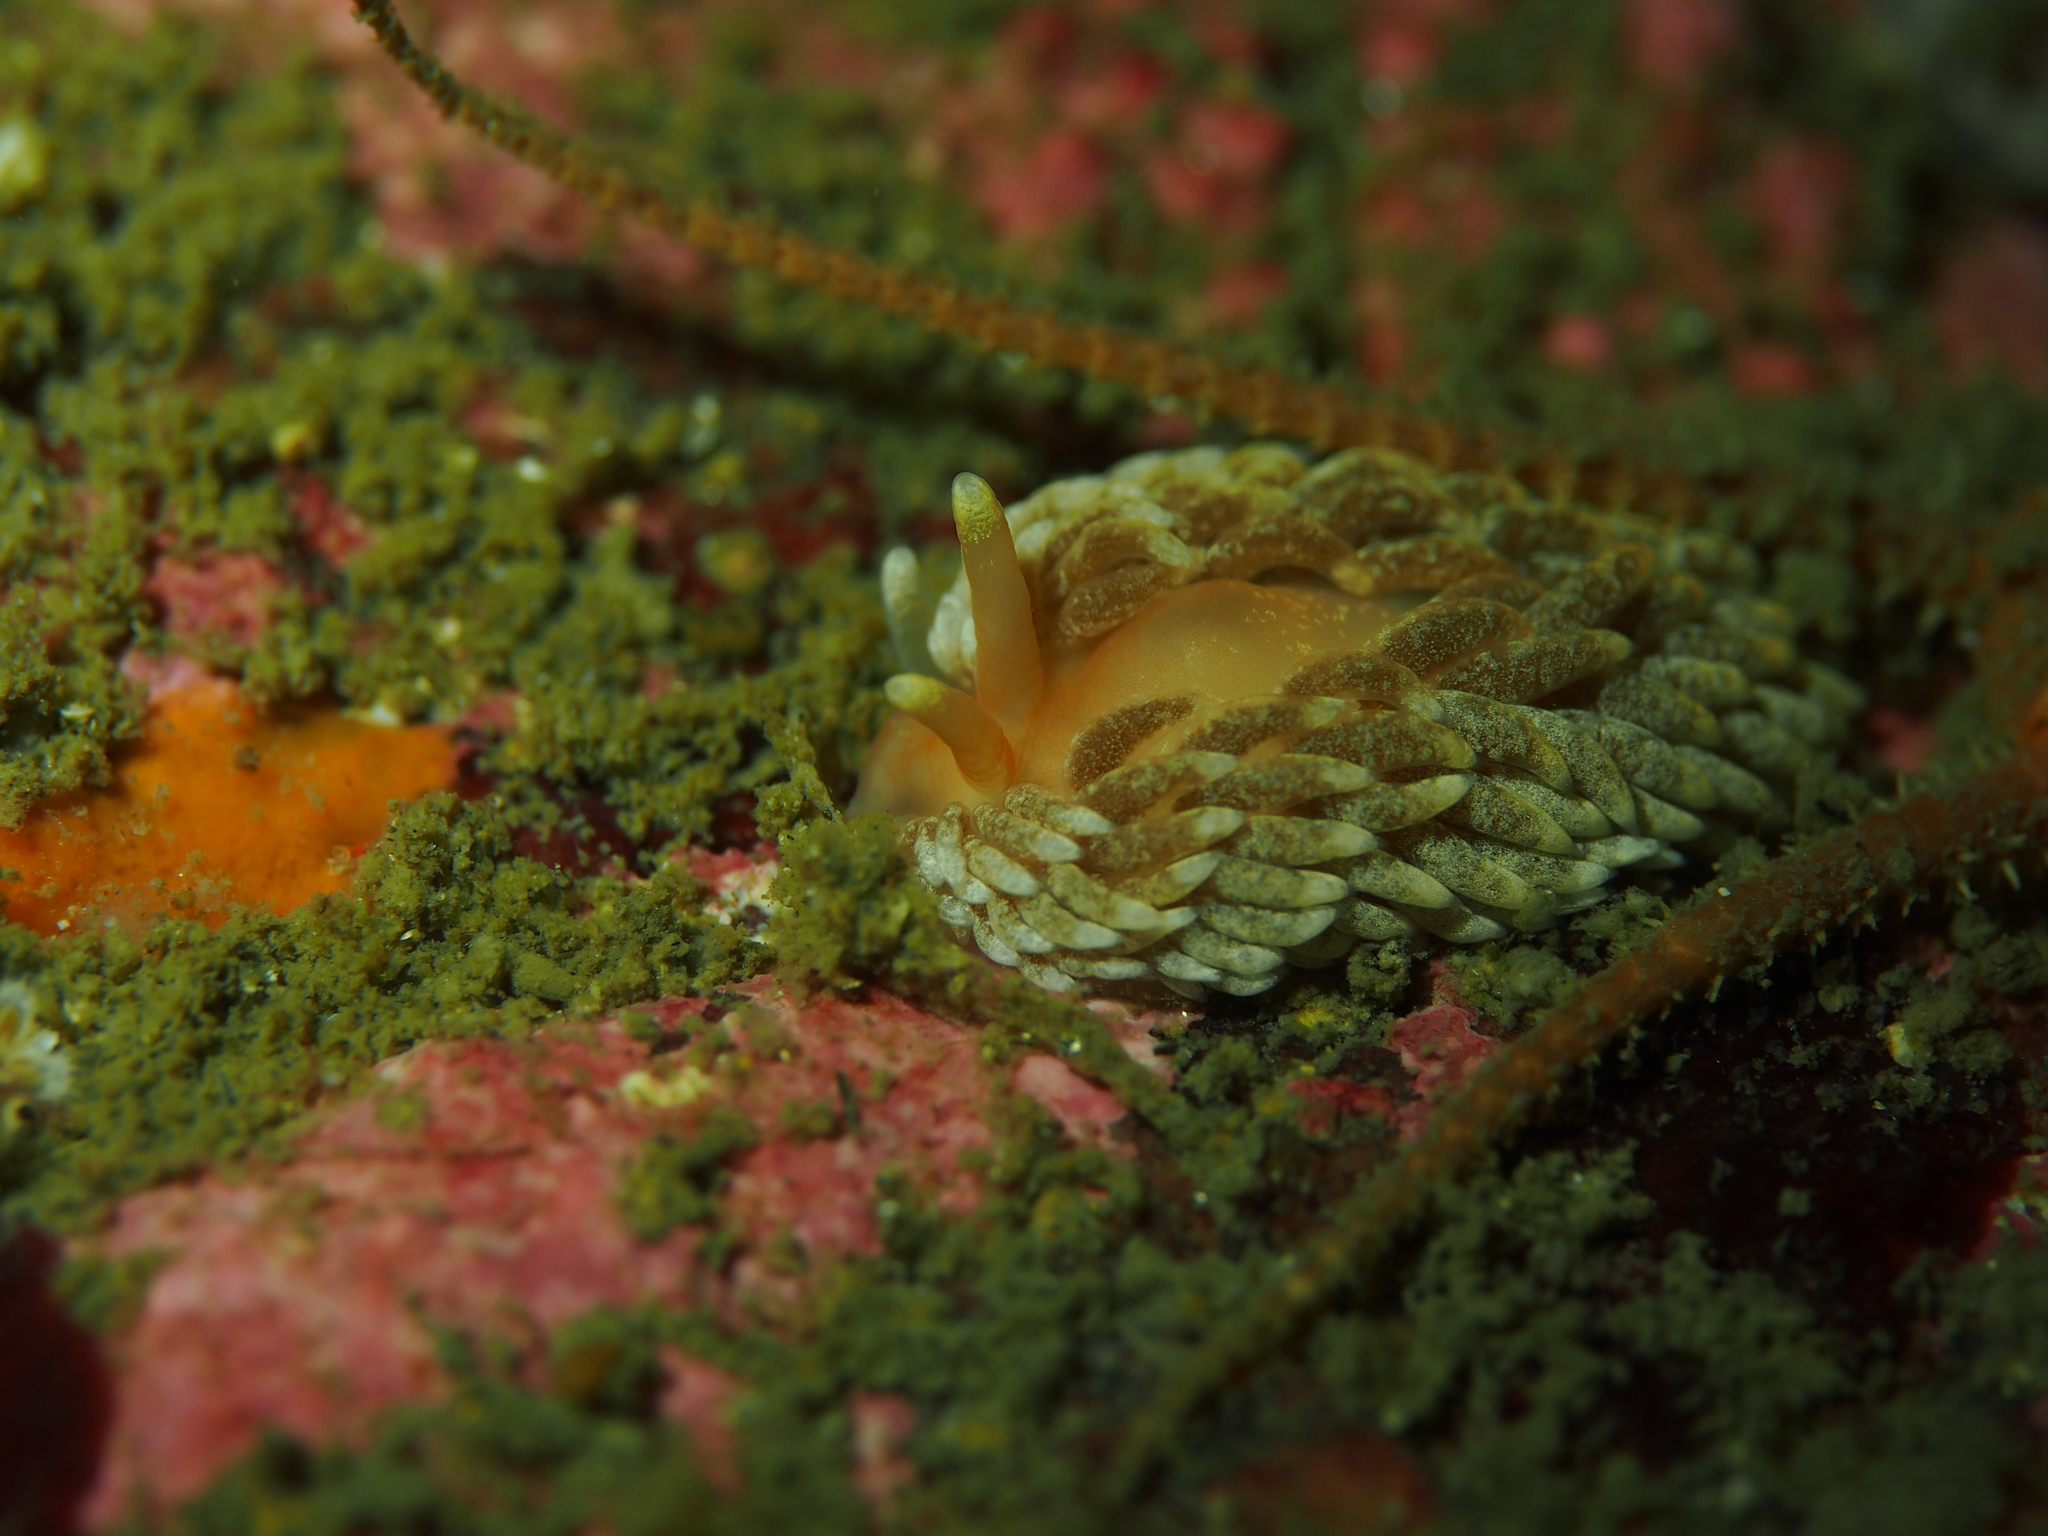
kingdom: Animalia
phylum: Mollusca
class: Gastropoda
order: Nudibranchia
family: Aeolidiidae
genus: Aeolidiella
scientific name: Aeolidiella glauca
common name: Orange-brown aeolid
